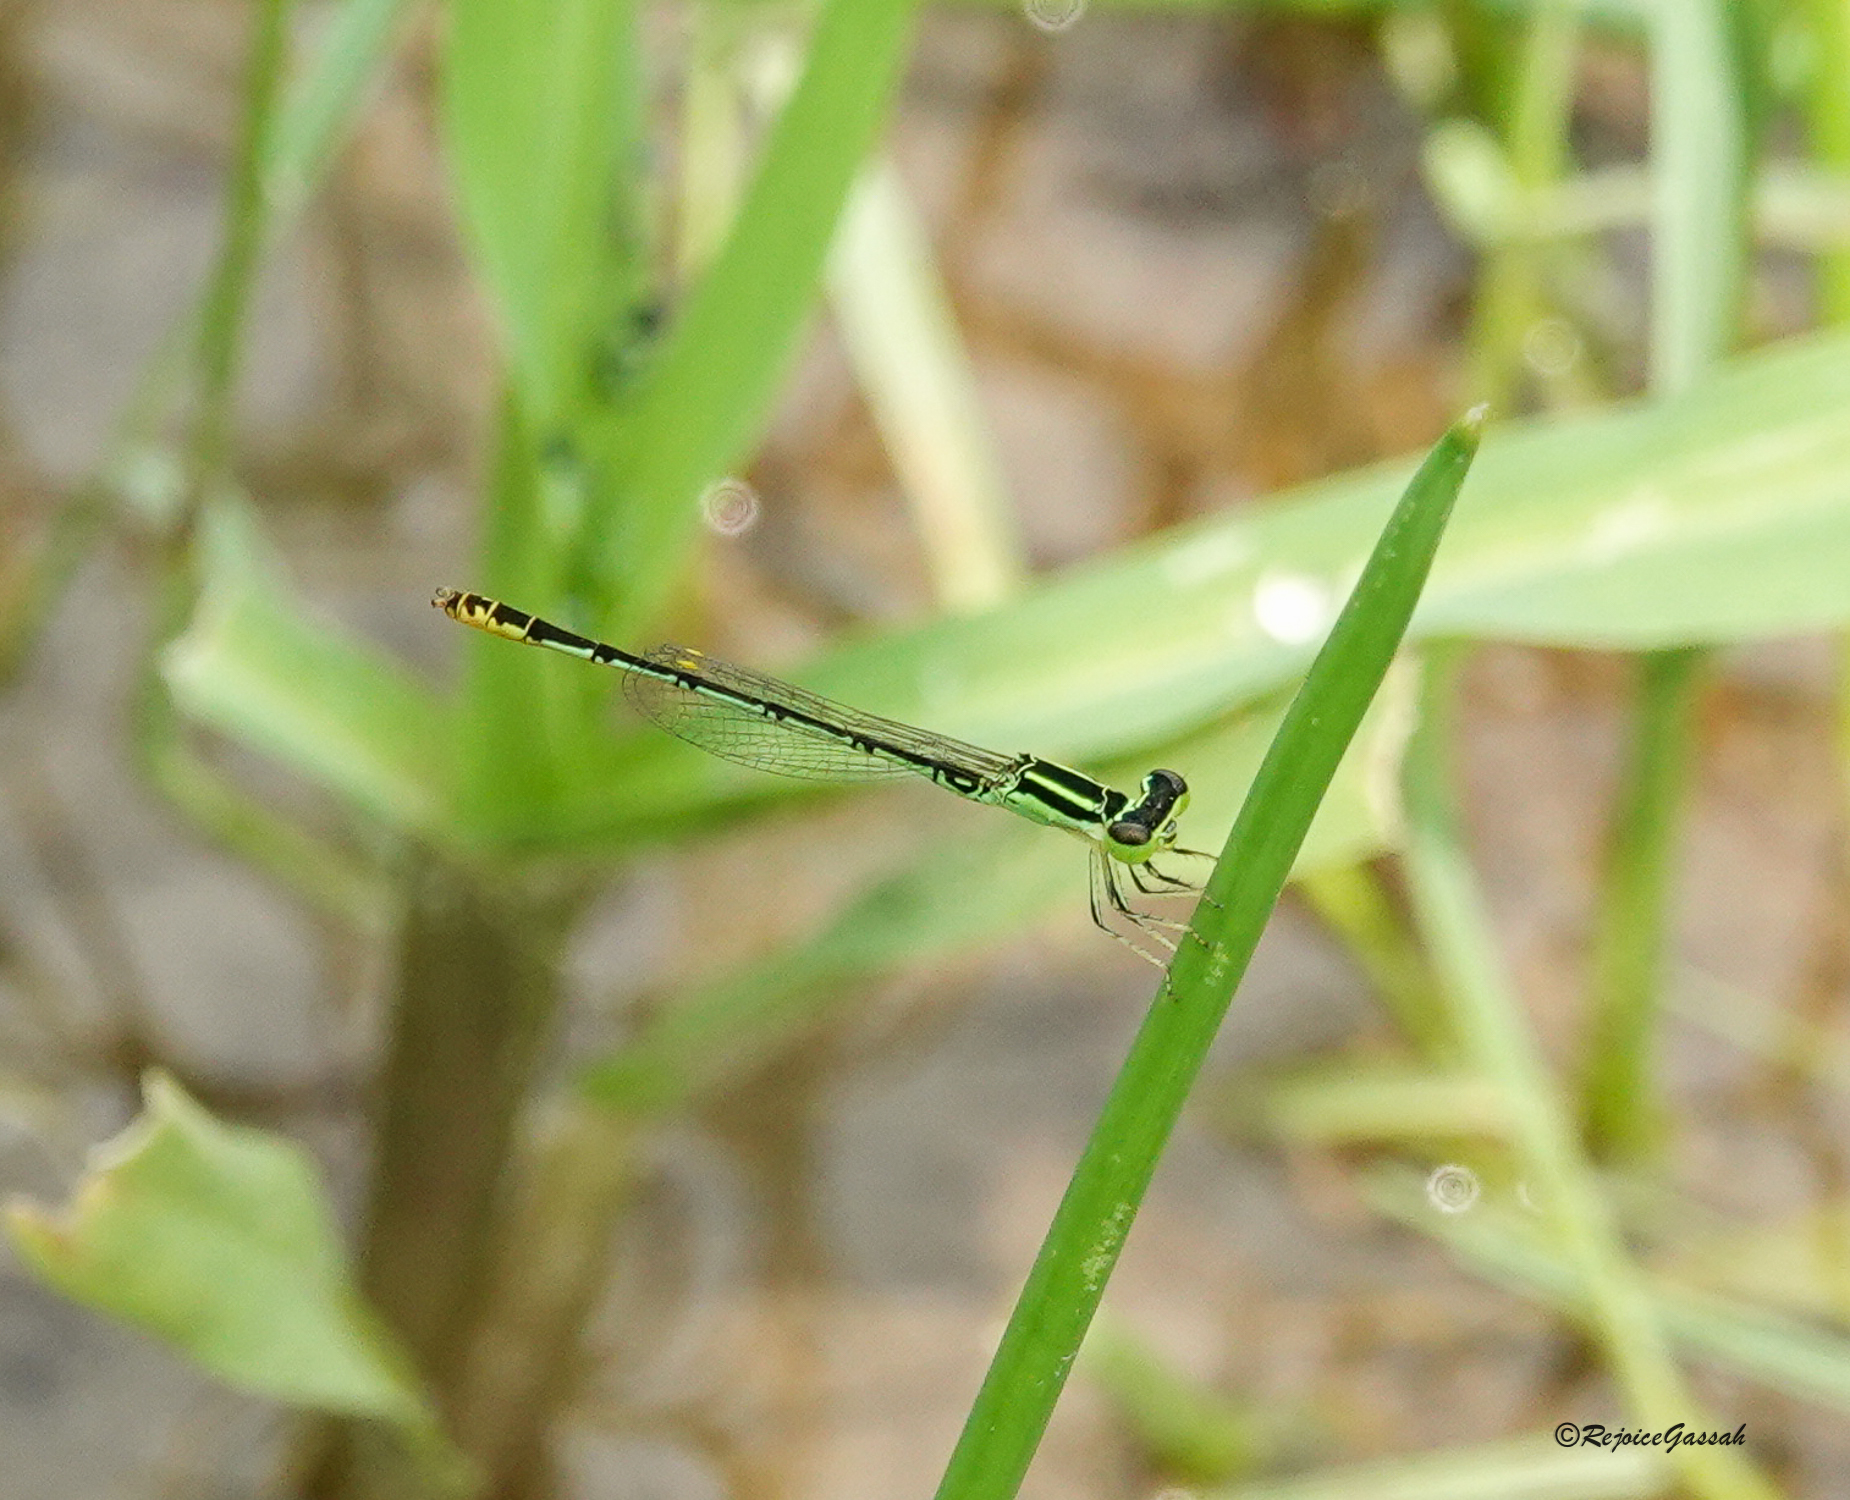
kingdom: Animalia
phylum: Arthropoda
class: Insecta
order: Odonata
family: Coenagrionidae
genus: Agriocnemis
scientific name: Agriocnemis kalinga
